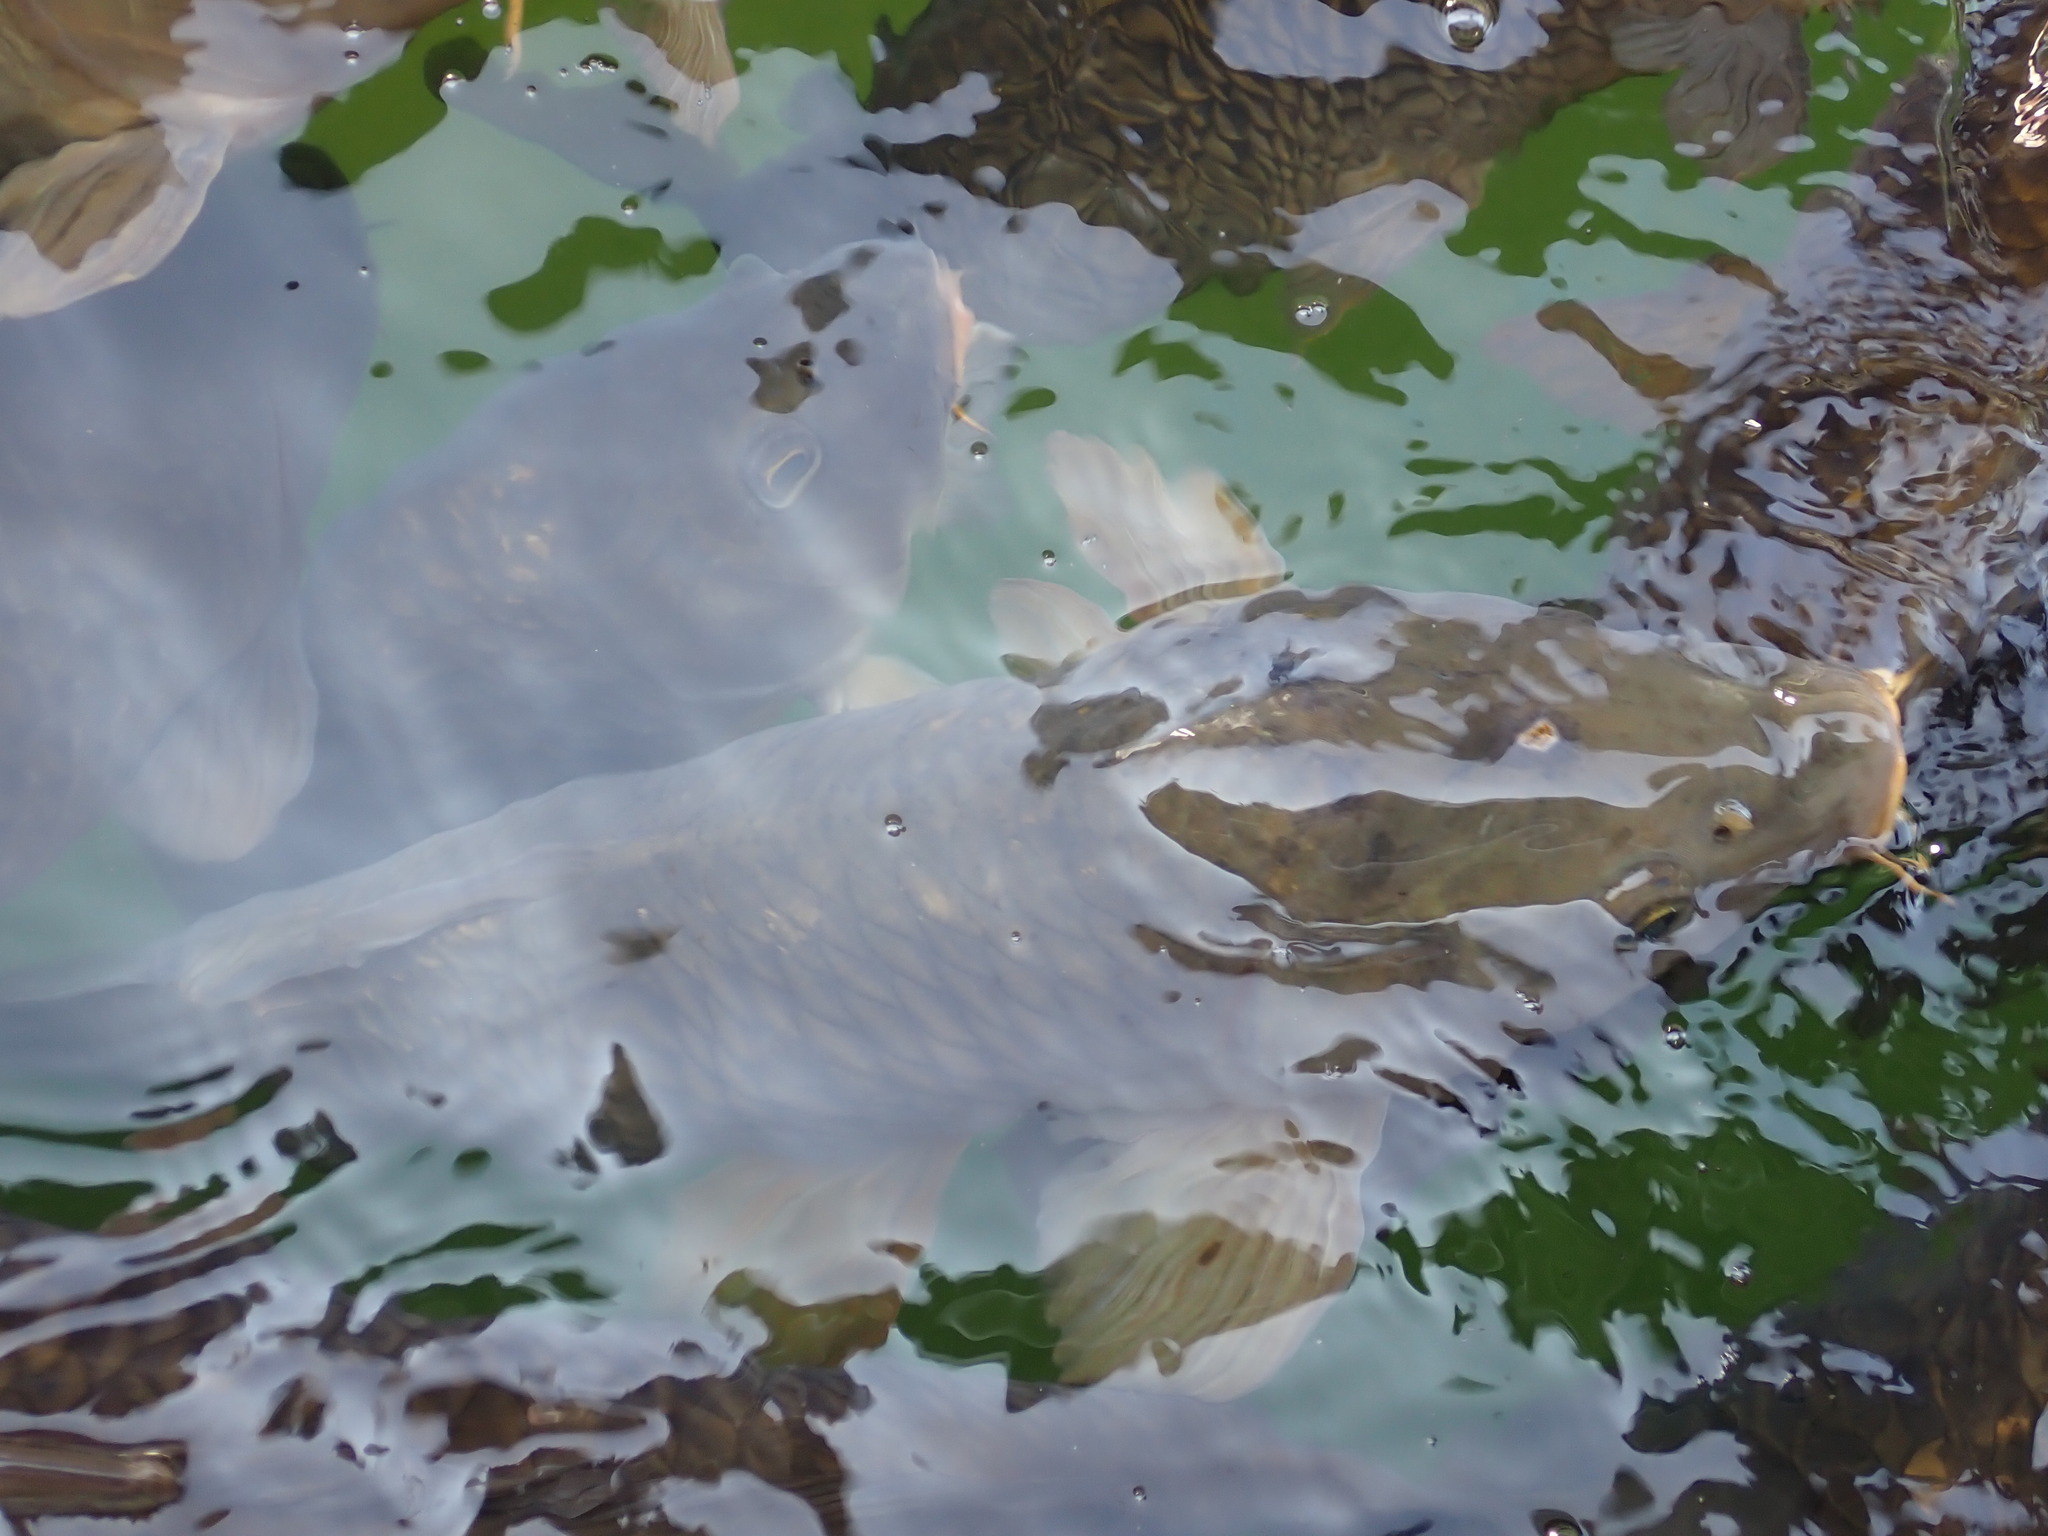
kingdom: Animalia
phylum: Chordata
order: Cypriniformes
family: Cyprinidae
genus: Cyprinus
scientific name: Cyprinus carpio
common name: Common carp
